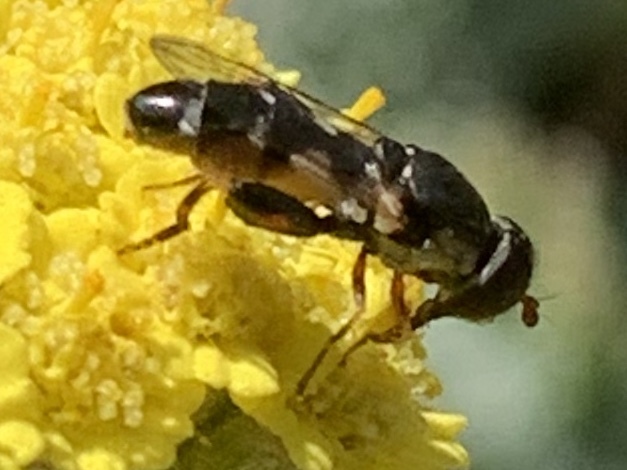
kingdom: Animalia
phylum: Arthropoda
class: Insecta
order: Diptera
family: Syrphidae
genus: Syritta
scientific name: Syritta pipiens
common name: Hover fly
